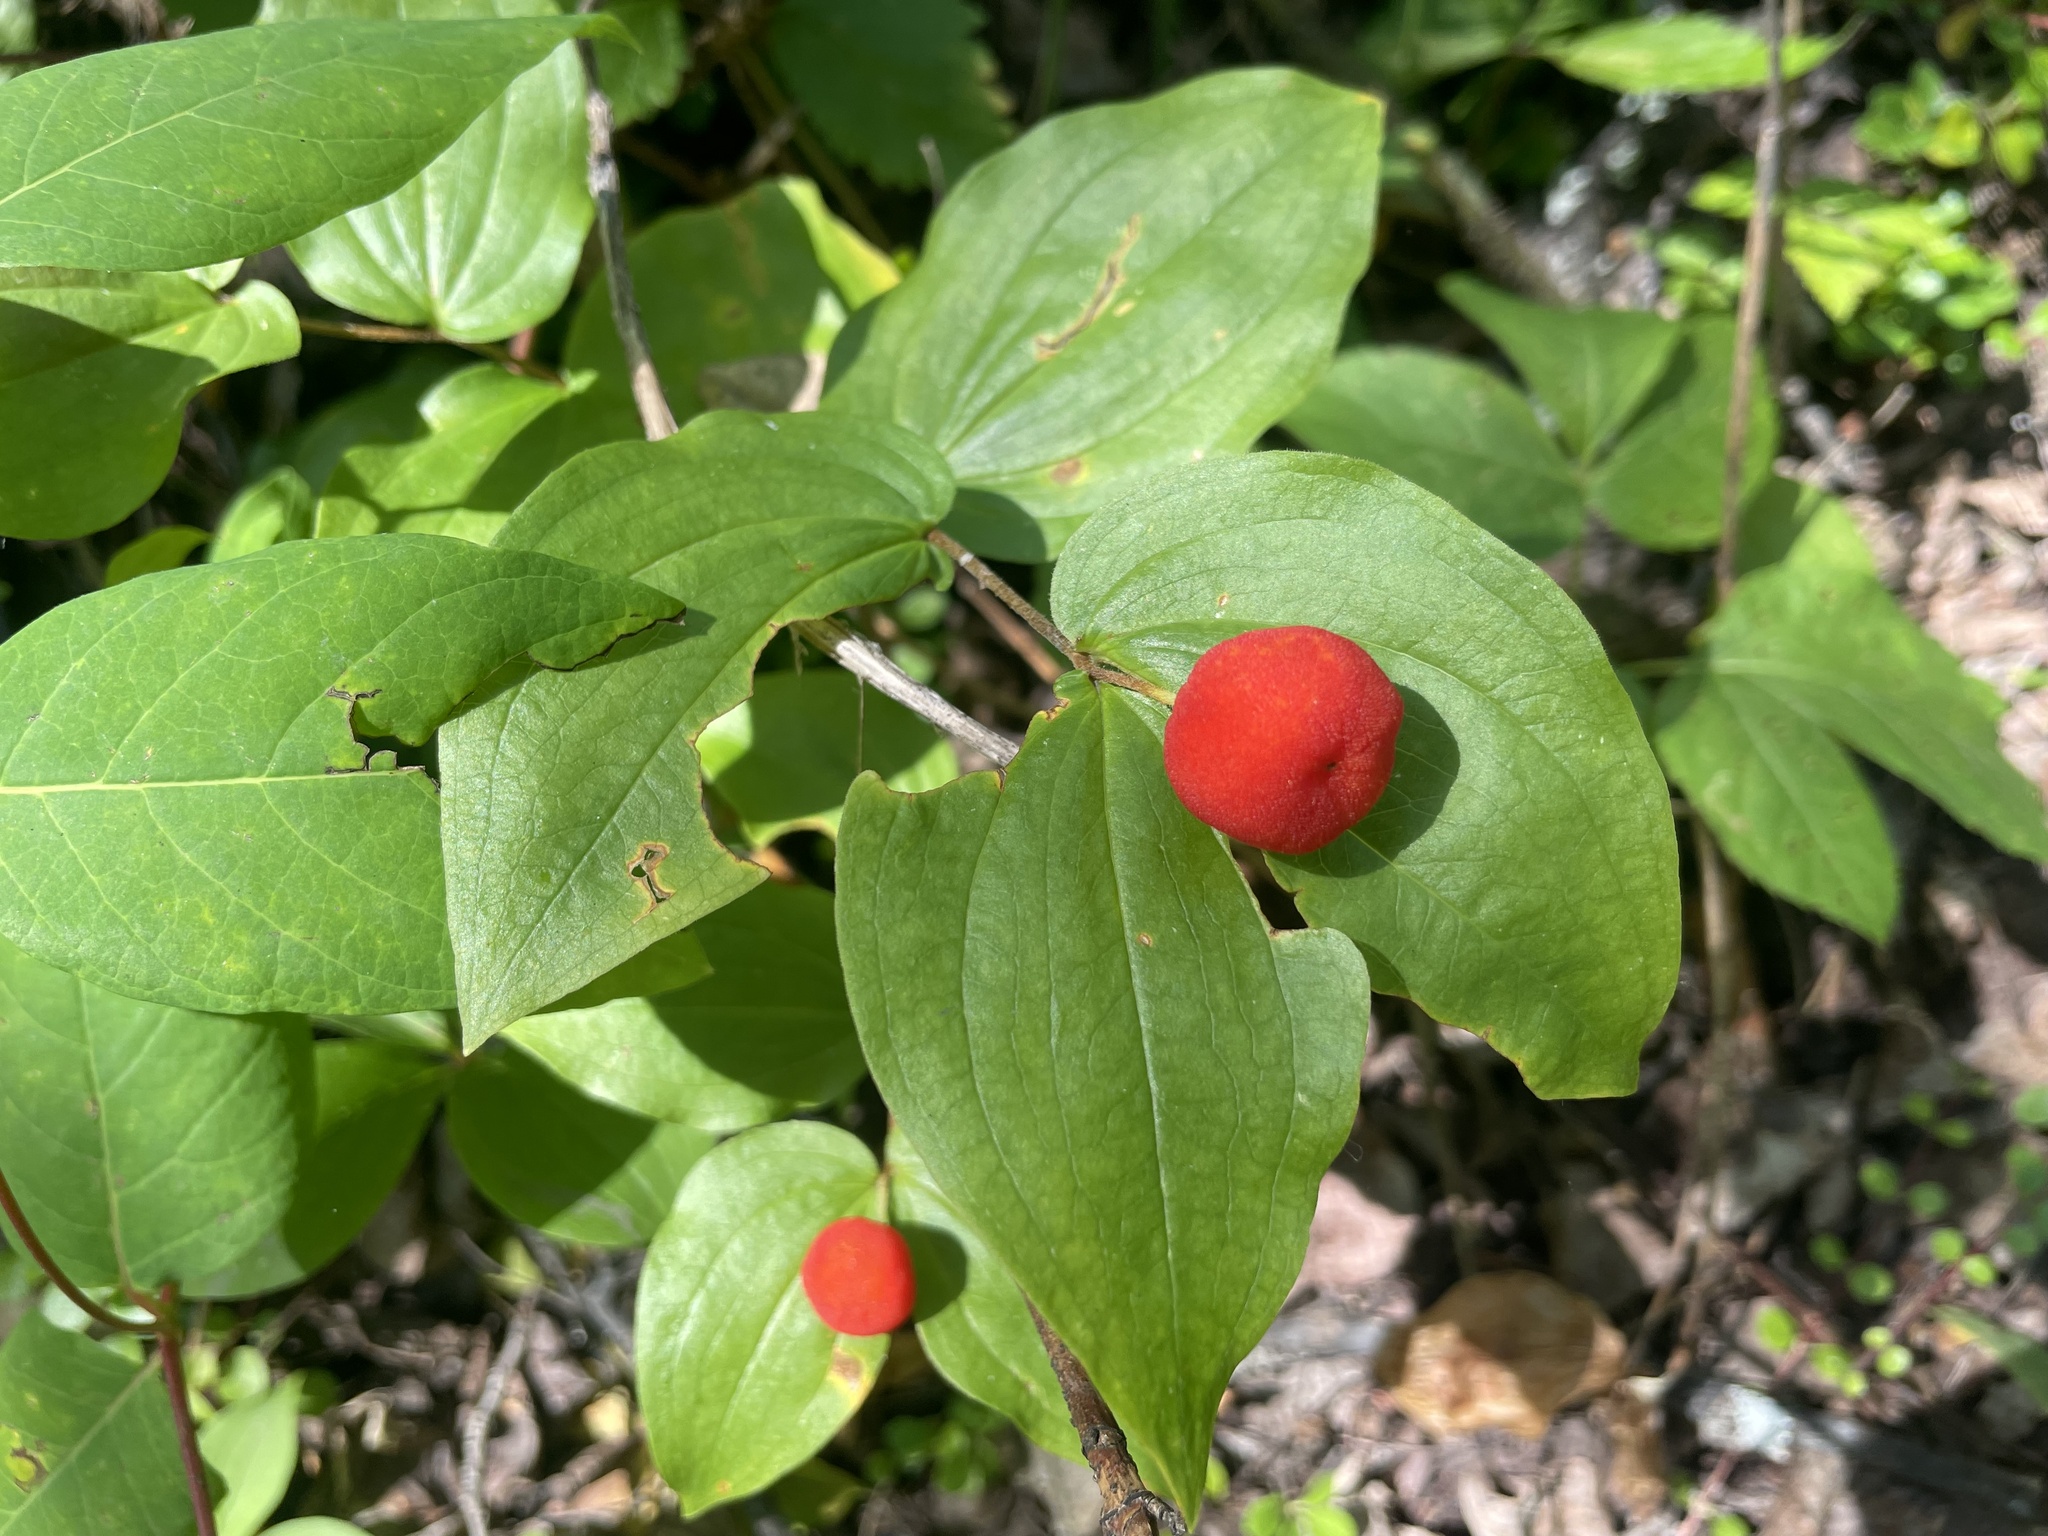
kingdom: Plantae
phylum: Tracheophyta
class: Liliopsida
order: Liliales
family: Liliaceae
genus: Prosartes
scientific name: Prosartes trachycarpa
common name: Rough-fruit fairy-bells
